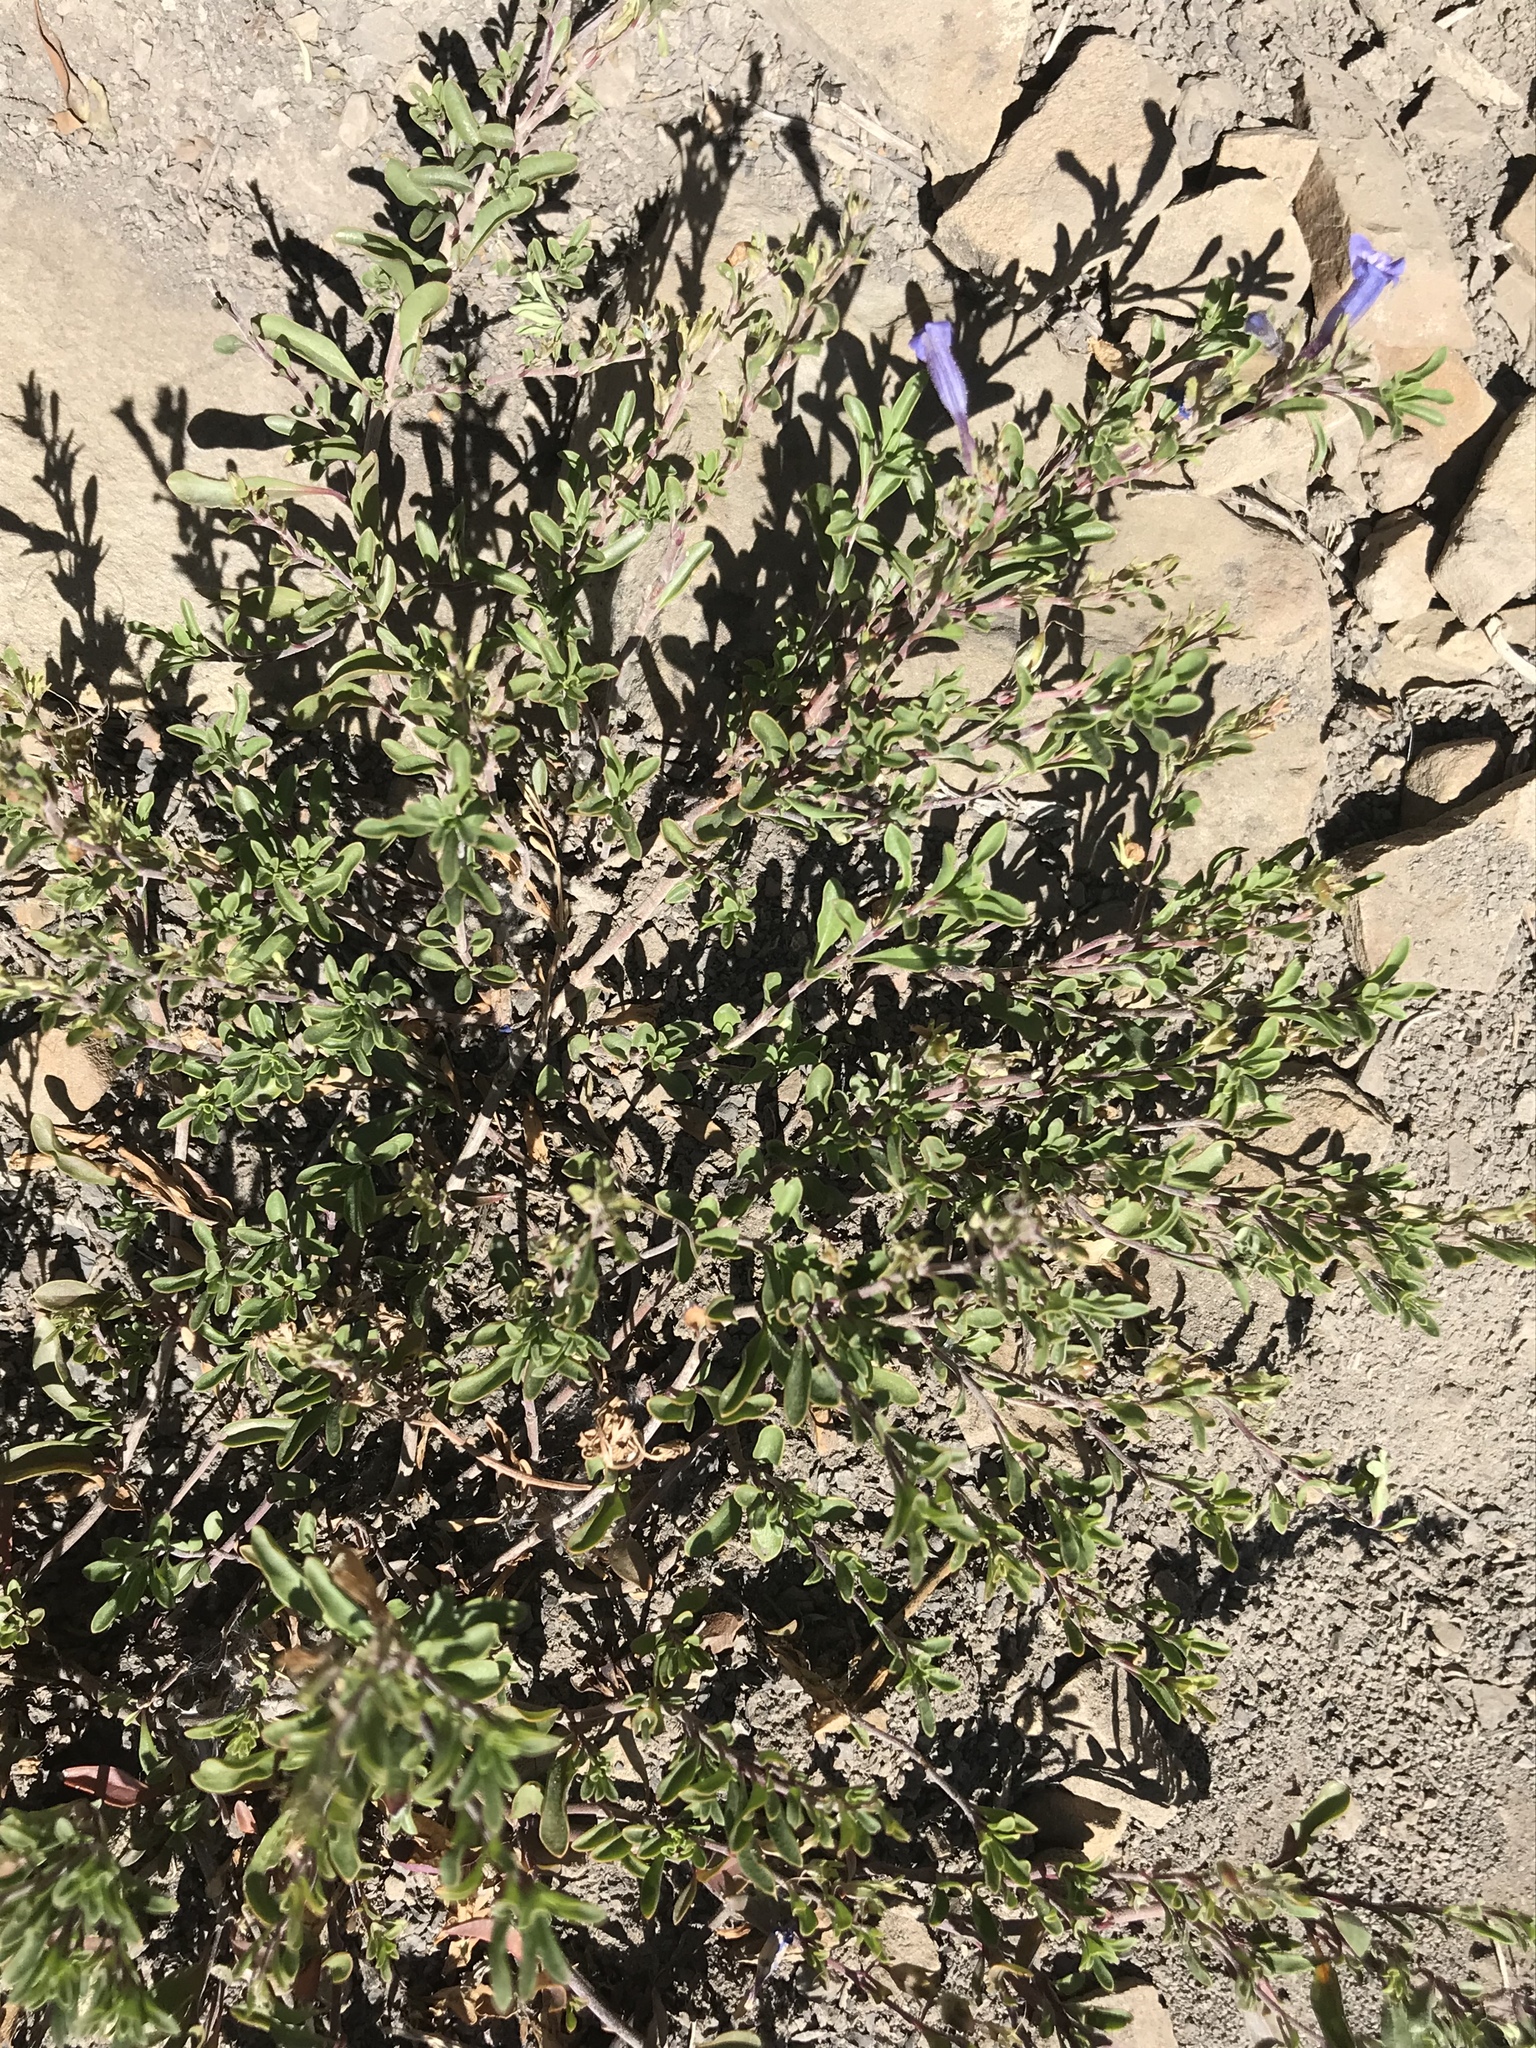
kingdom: Plantae
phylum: Tracheophyta
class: Magnoliopsida
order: Lamiales
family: Plantaginaceae
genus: Penstemon
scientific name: Penstemon caespitosus
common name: Mat penstemon
